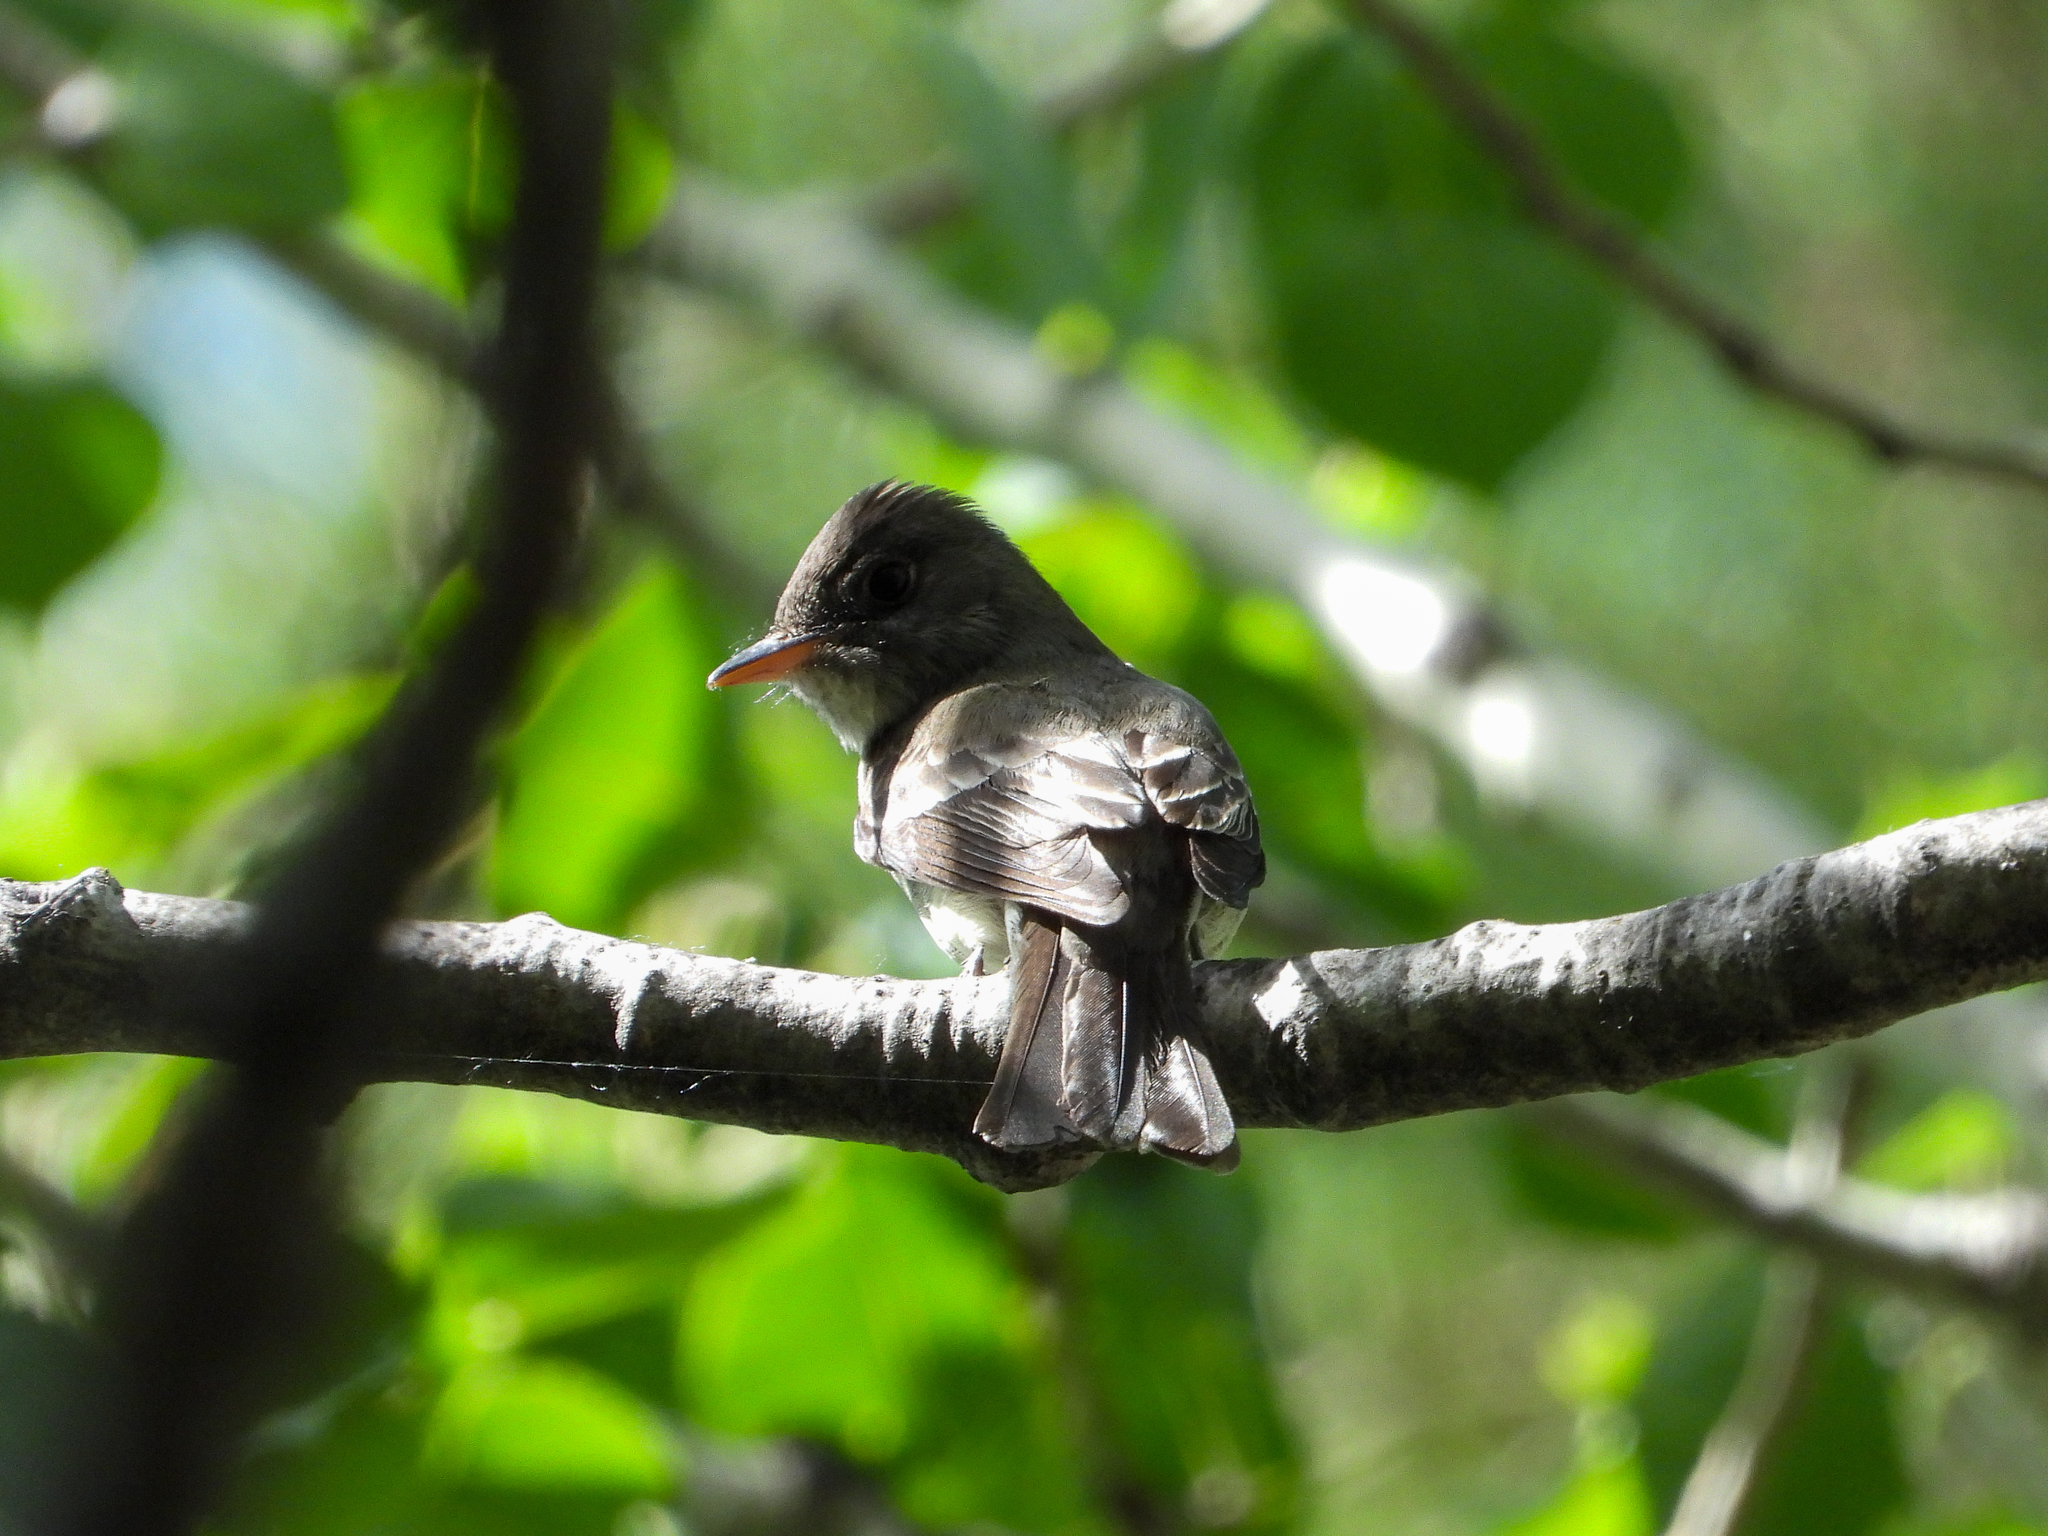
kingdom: Animalia
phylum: Chordata
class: Aves
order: Passeriformes
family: Tyrannidae
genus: Contopus
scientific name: Contopus virens
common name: Eastern wood-pewee
